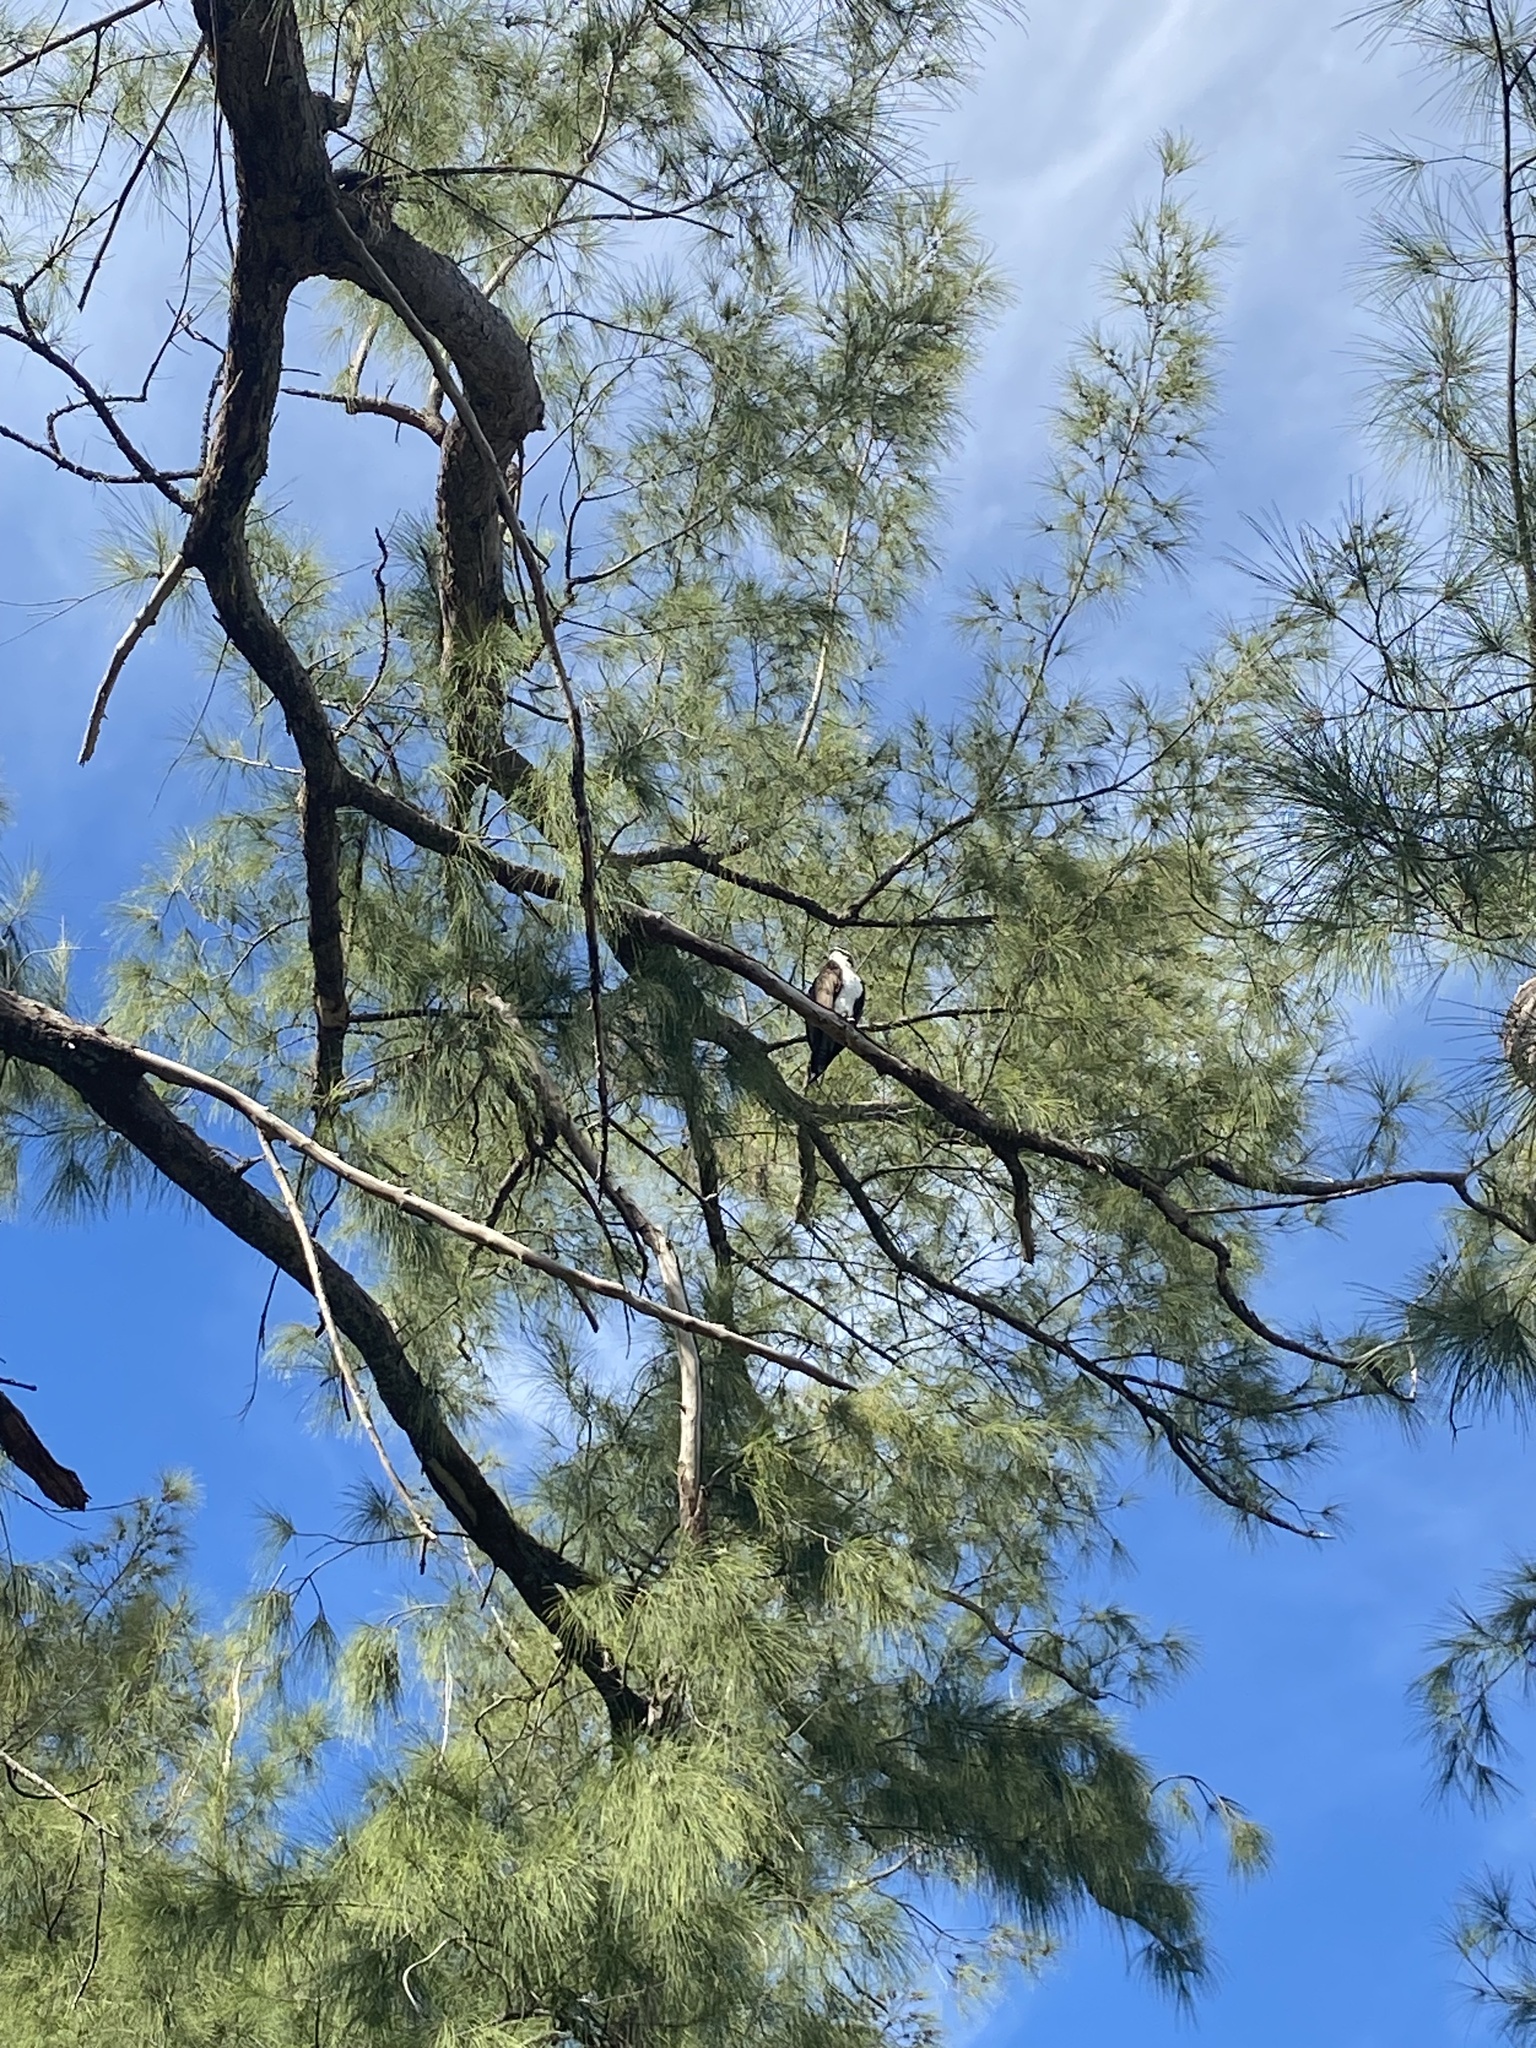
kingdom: Animalia
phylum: Chordata
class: Aves
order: Accipitriformes
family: Pandionidae
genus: Pandion
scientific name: Pandion haliaetus
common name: Osprey
